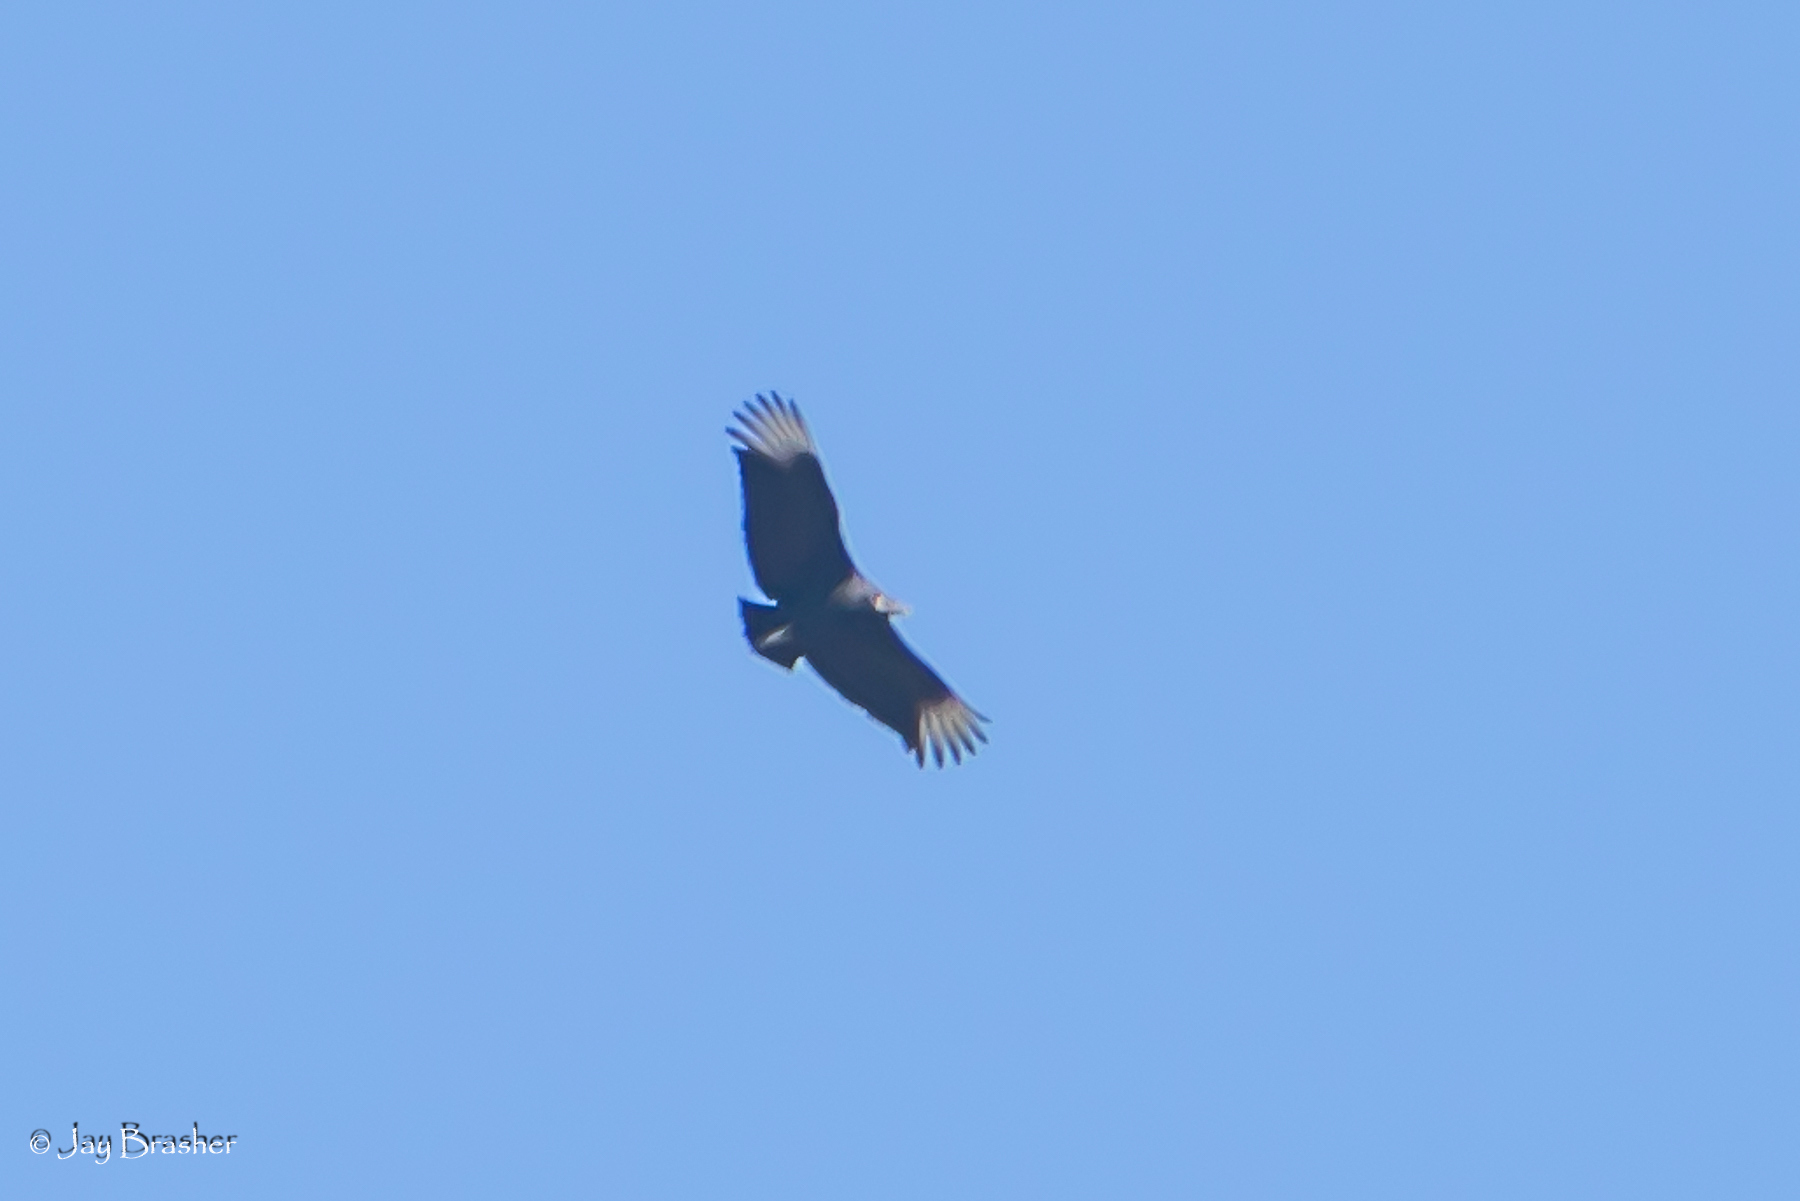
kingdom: Animalia
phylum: Chordata
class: Aves
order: Accipitriformes
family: Cathartidae
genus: Coragyps
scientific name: Coragyps atratus
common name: Black vulture
